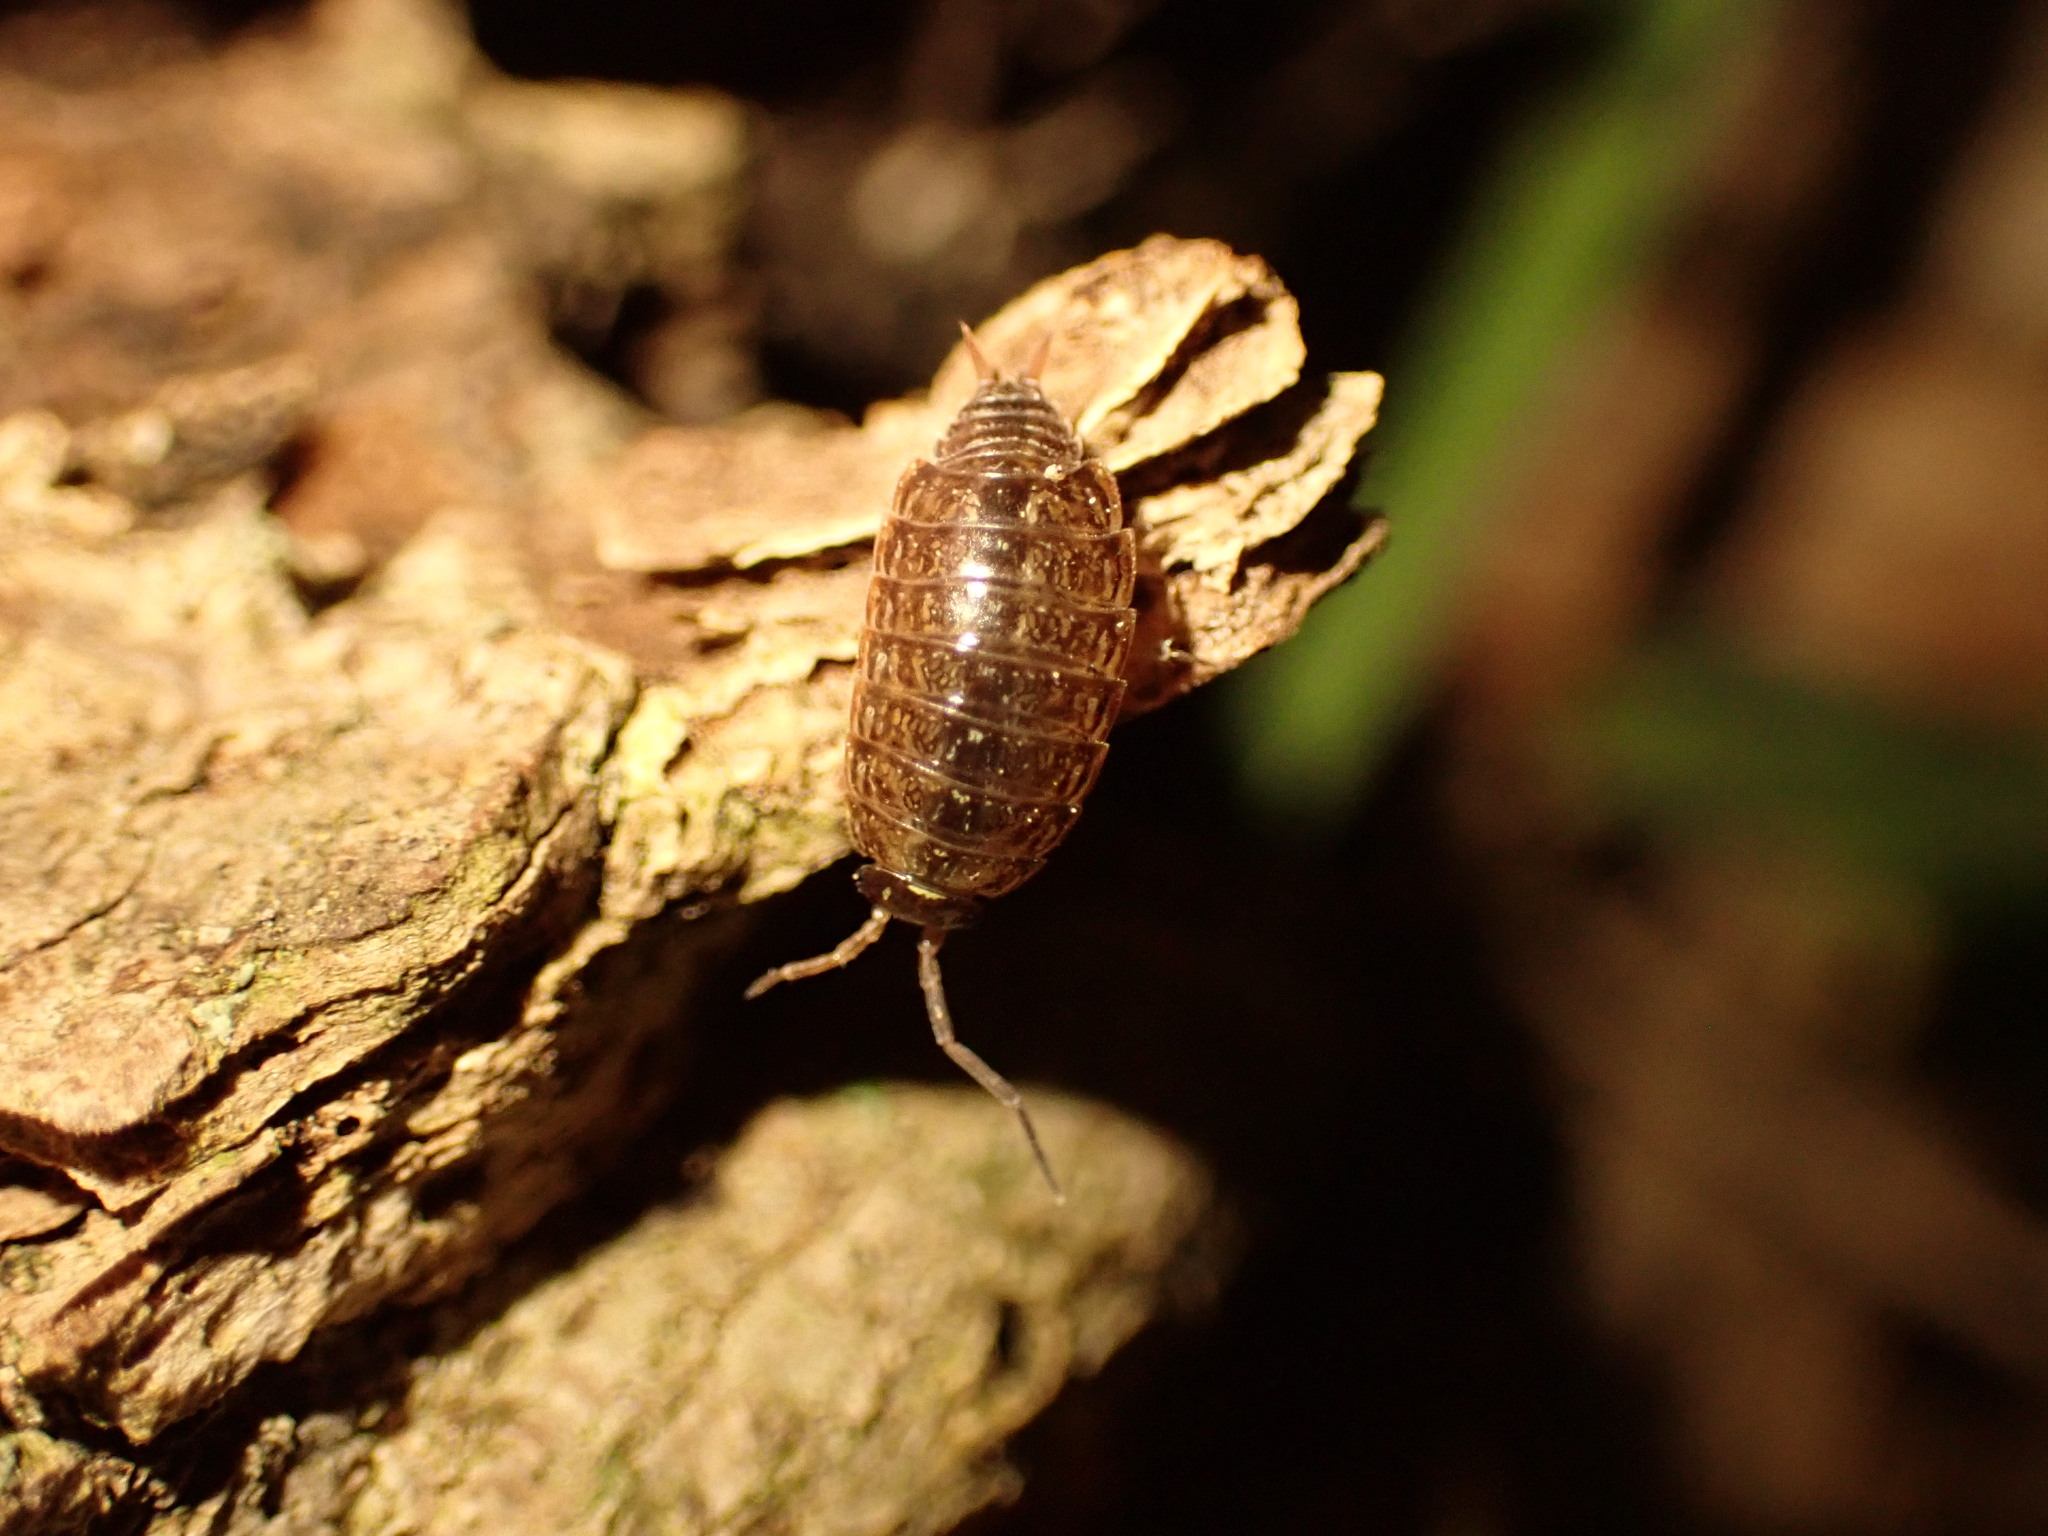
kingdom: Animalia
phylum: Arthropoda
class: Malacostraca
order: Isopoda
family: Philosciidae
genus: Philoscia
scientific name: Philoscia muscorum
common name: Common striped woodlouse
